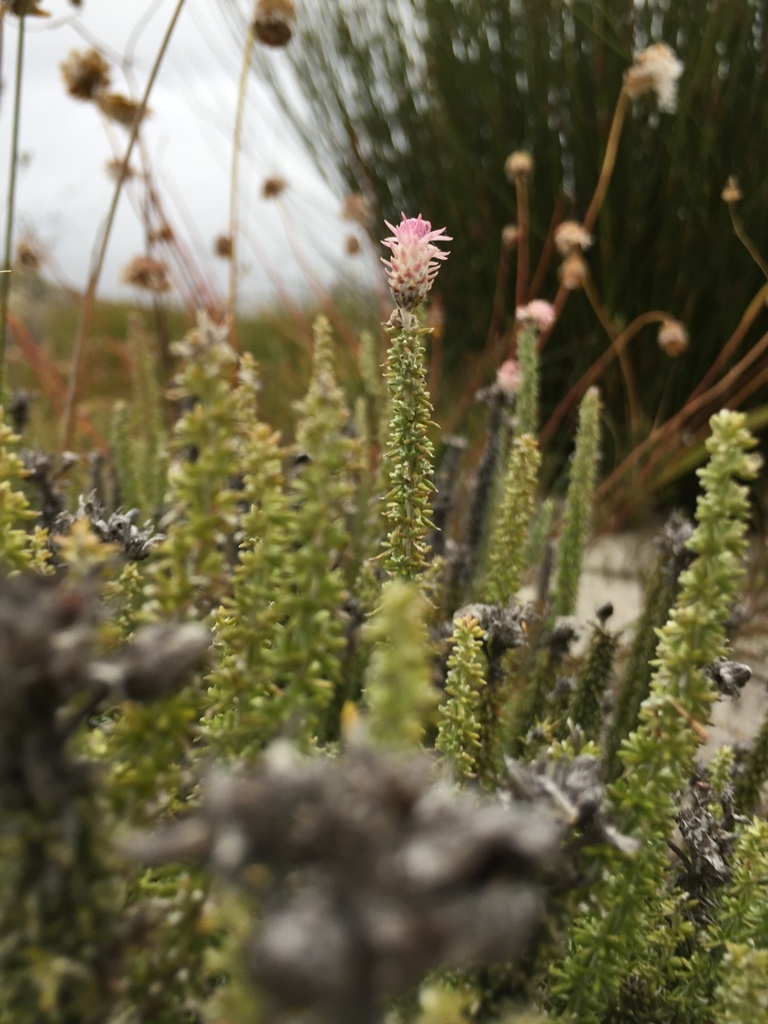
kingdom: Plantae
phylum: Tracheophyta
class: Magnoliopsida
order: Asterales
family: Asteraceae
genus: Lachnospermum
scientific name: Lachnospermum umbellatum
